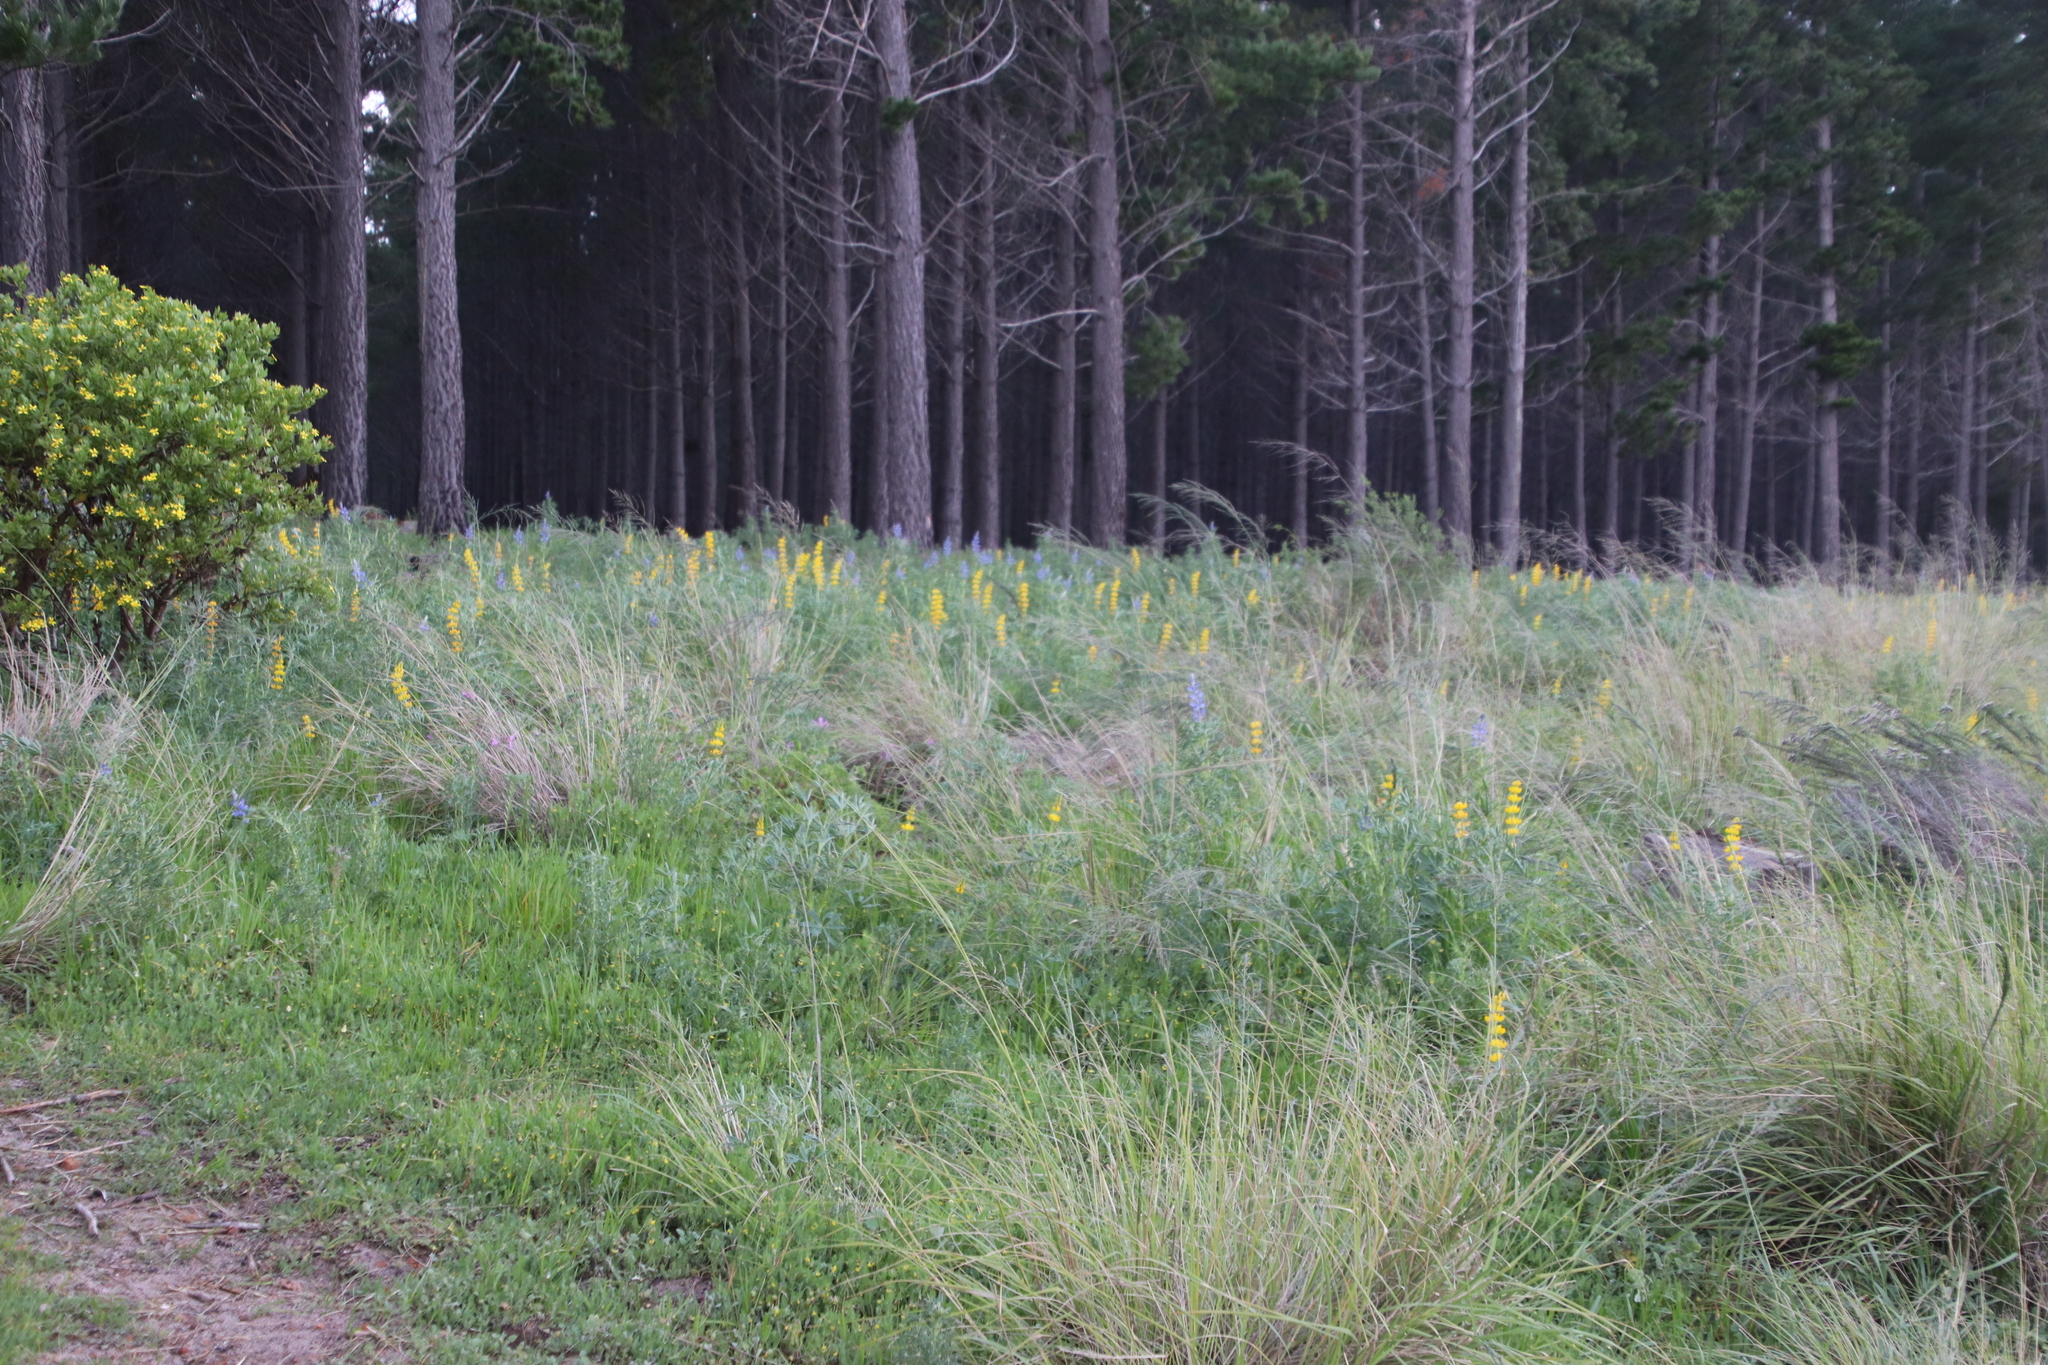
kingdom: Plantae
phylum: Tracheophyta
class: Magnoliopsida
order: Fabales
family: Fabaceae
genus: Lupinus
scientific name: Lupinus luteus
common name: European yellow lupine
